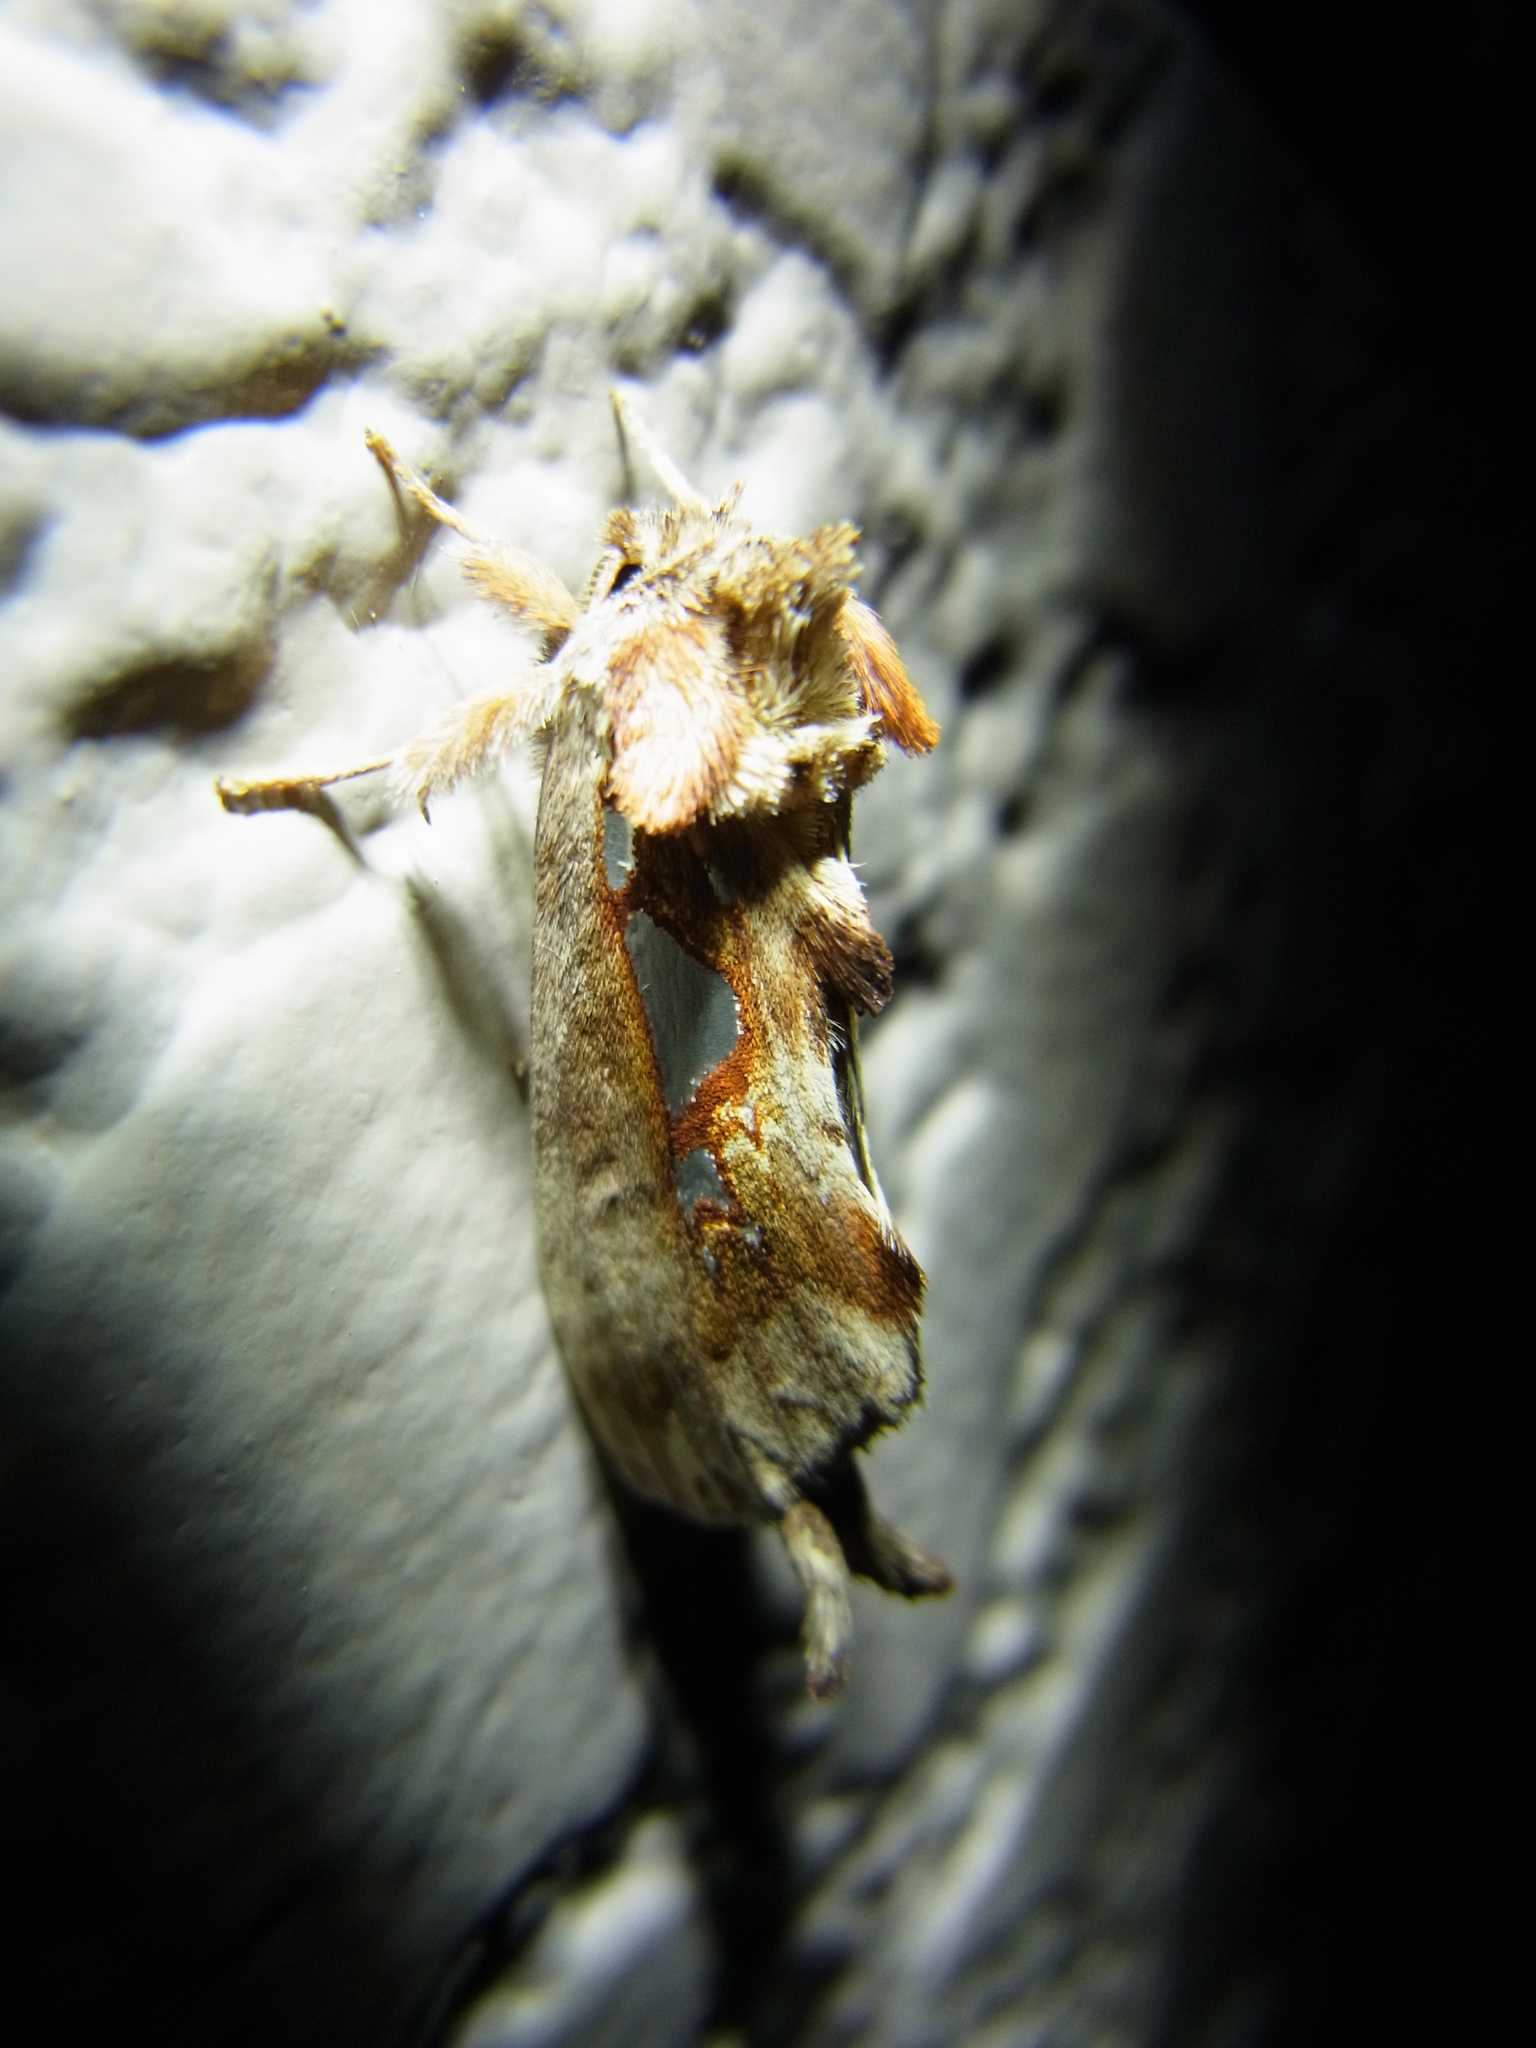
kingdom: Animalia
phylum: Arthropoda
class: Insecta
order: Lepidoptera
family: Notodontidae
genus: Spatalia
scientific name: Spatalia doerriesi
